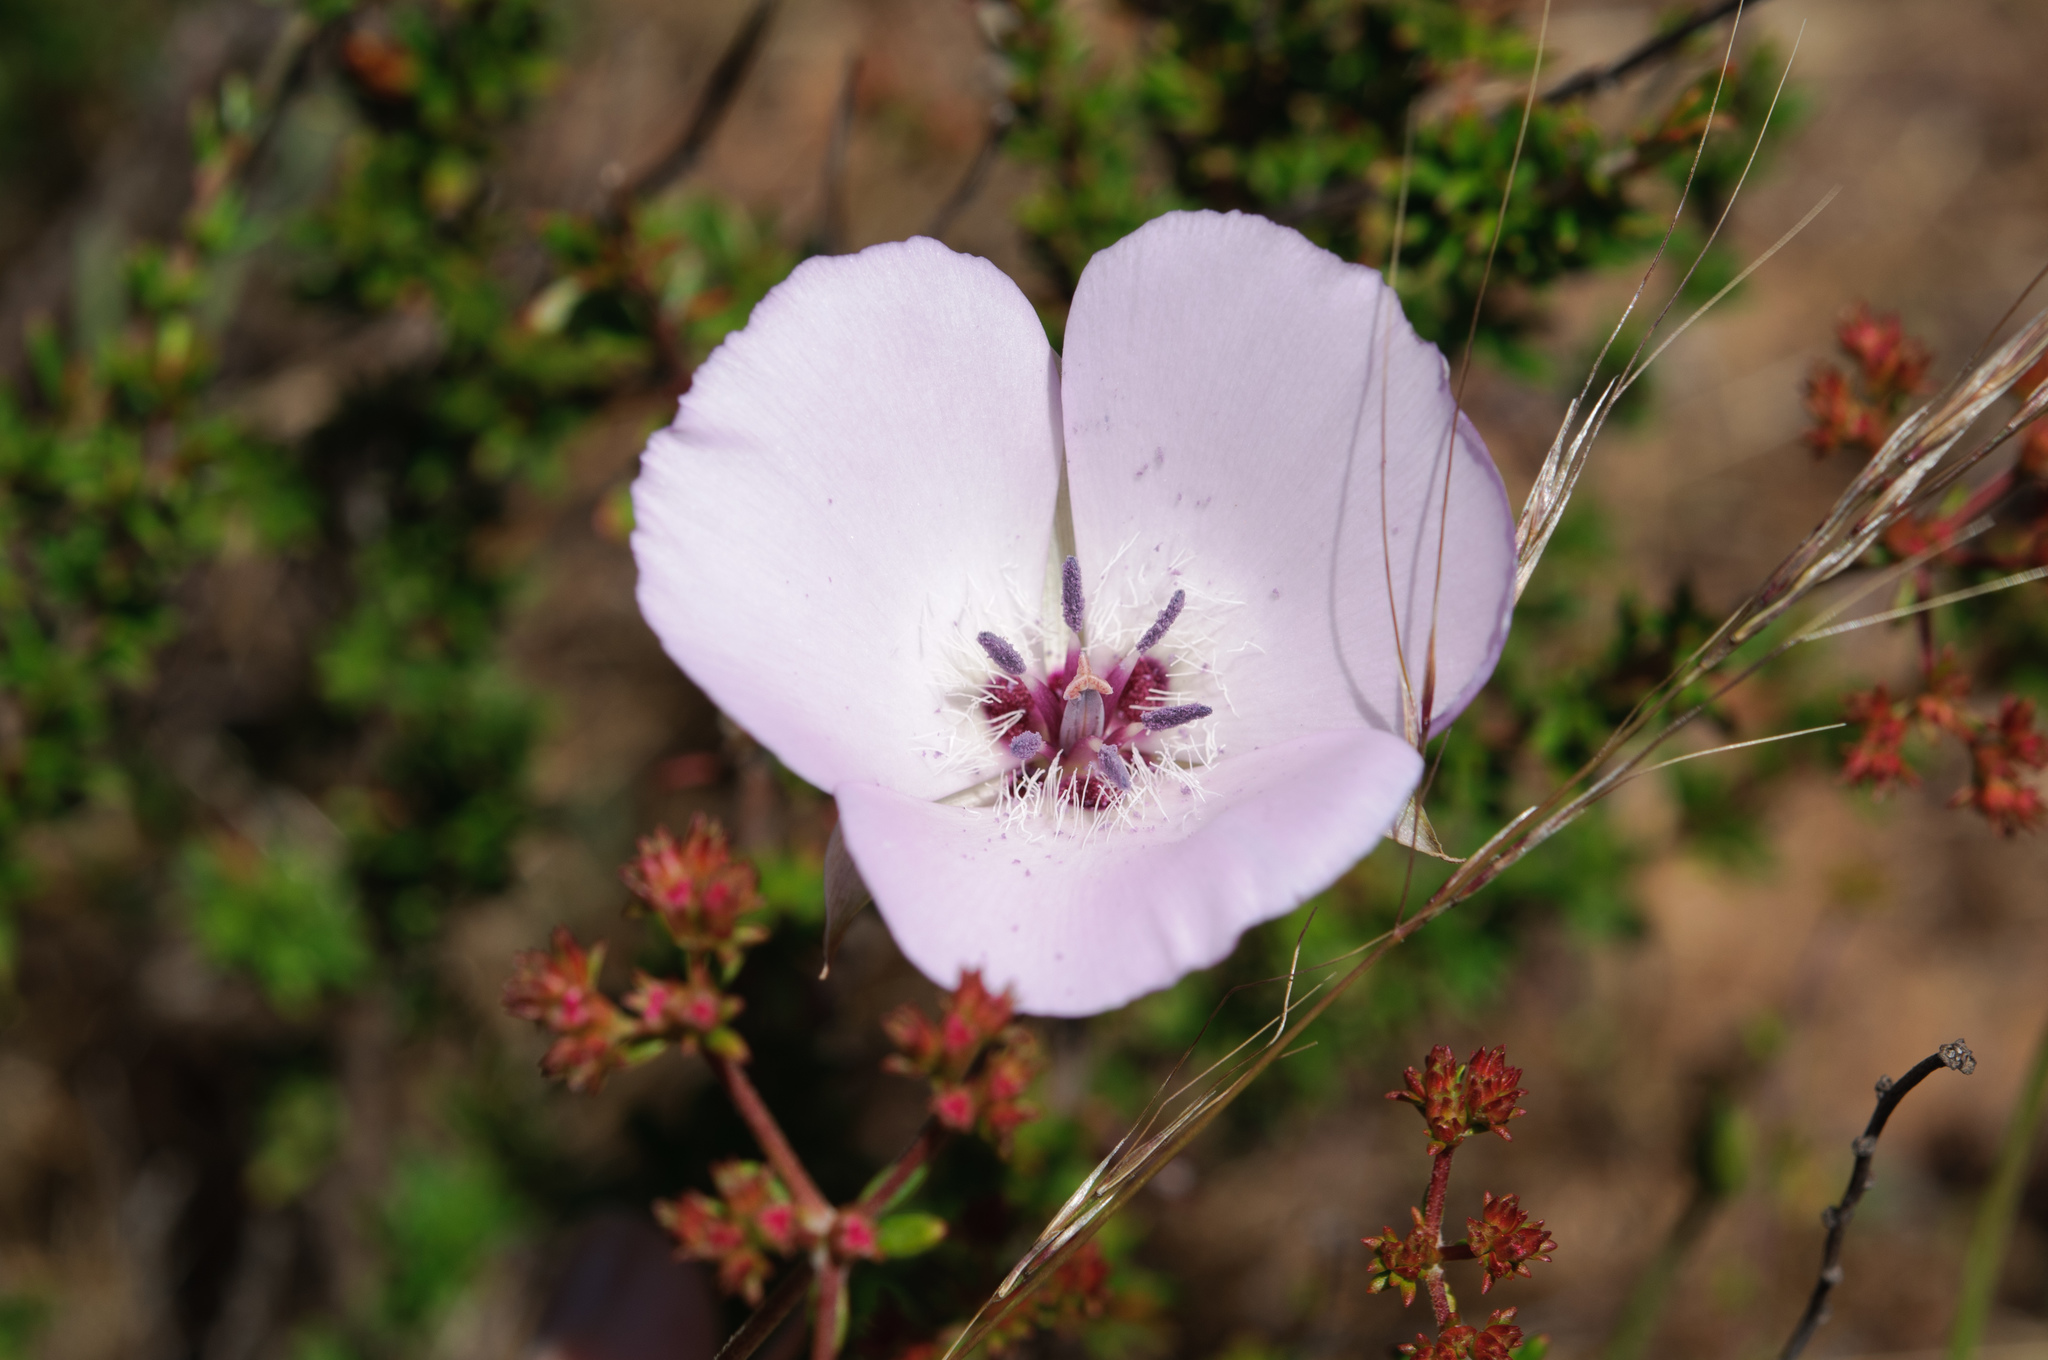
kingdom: Plantae
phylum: Tracheophyta
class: Liliopsida
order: Liliales
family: Liliaceae
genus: Calochortus
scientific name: Calochortus splendens
